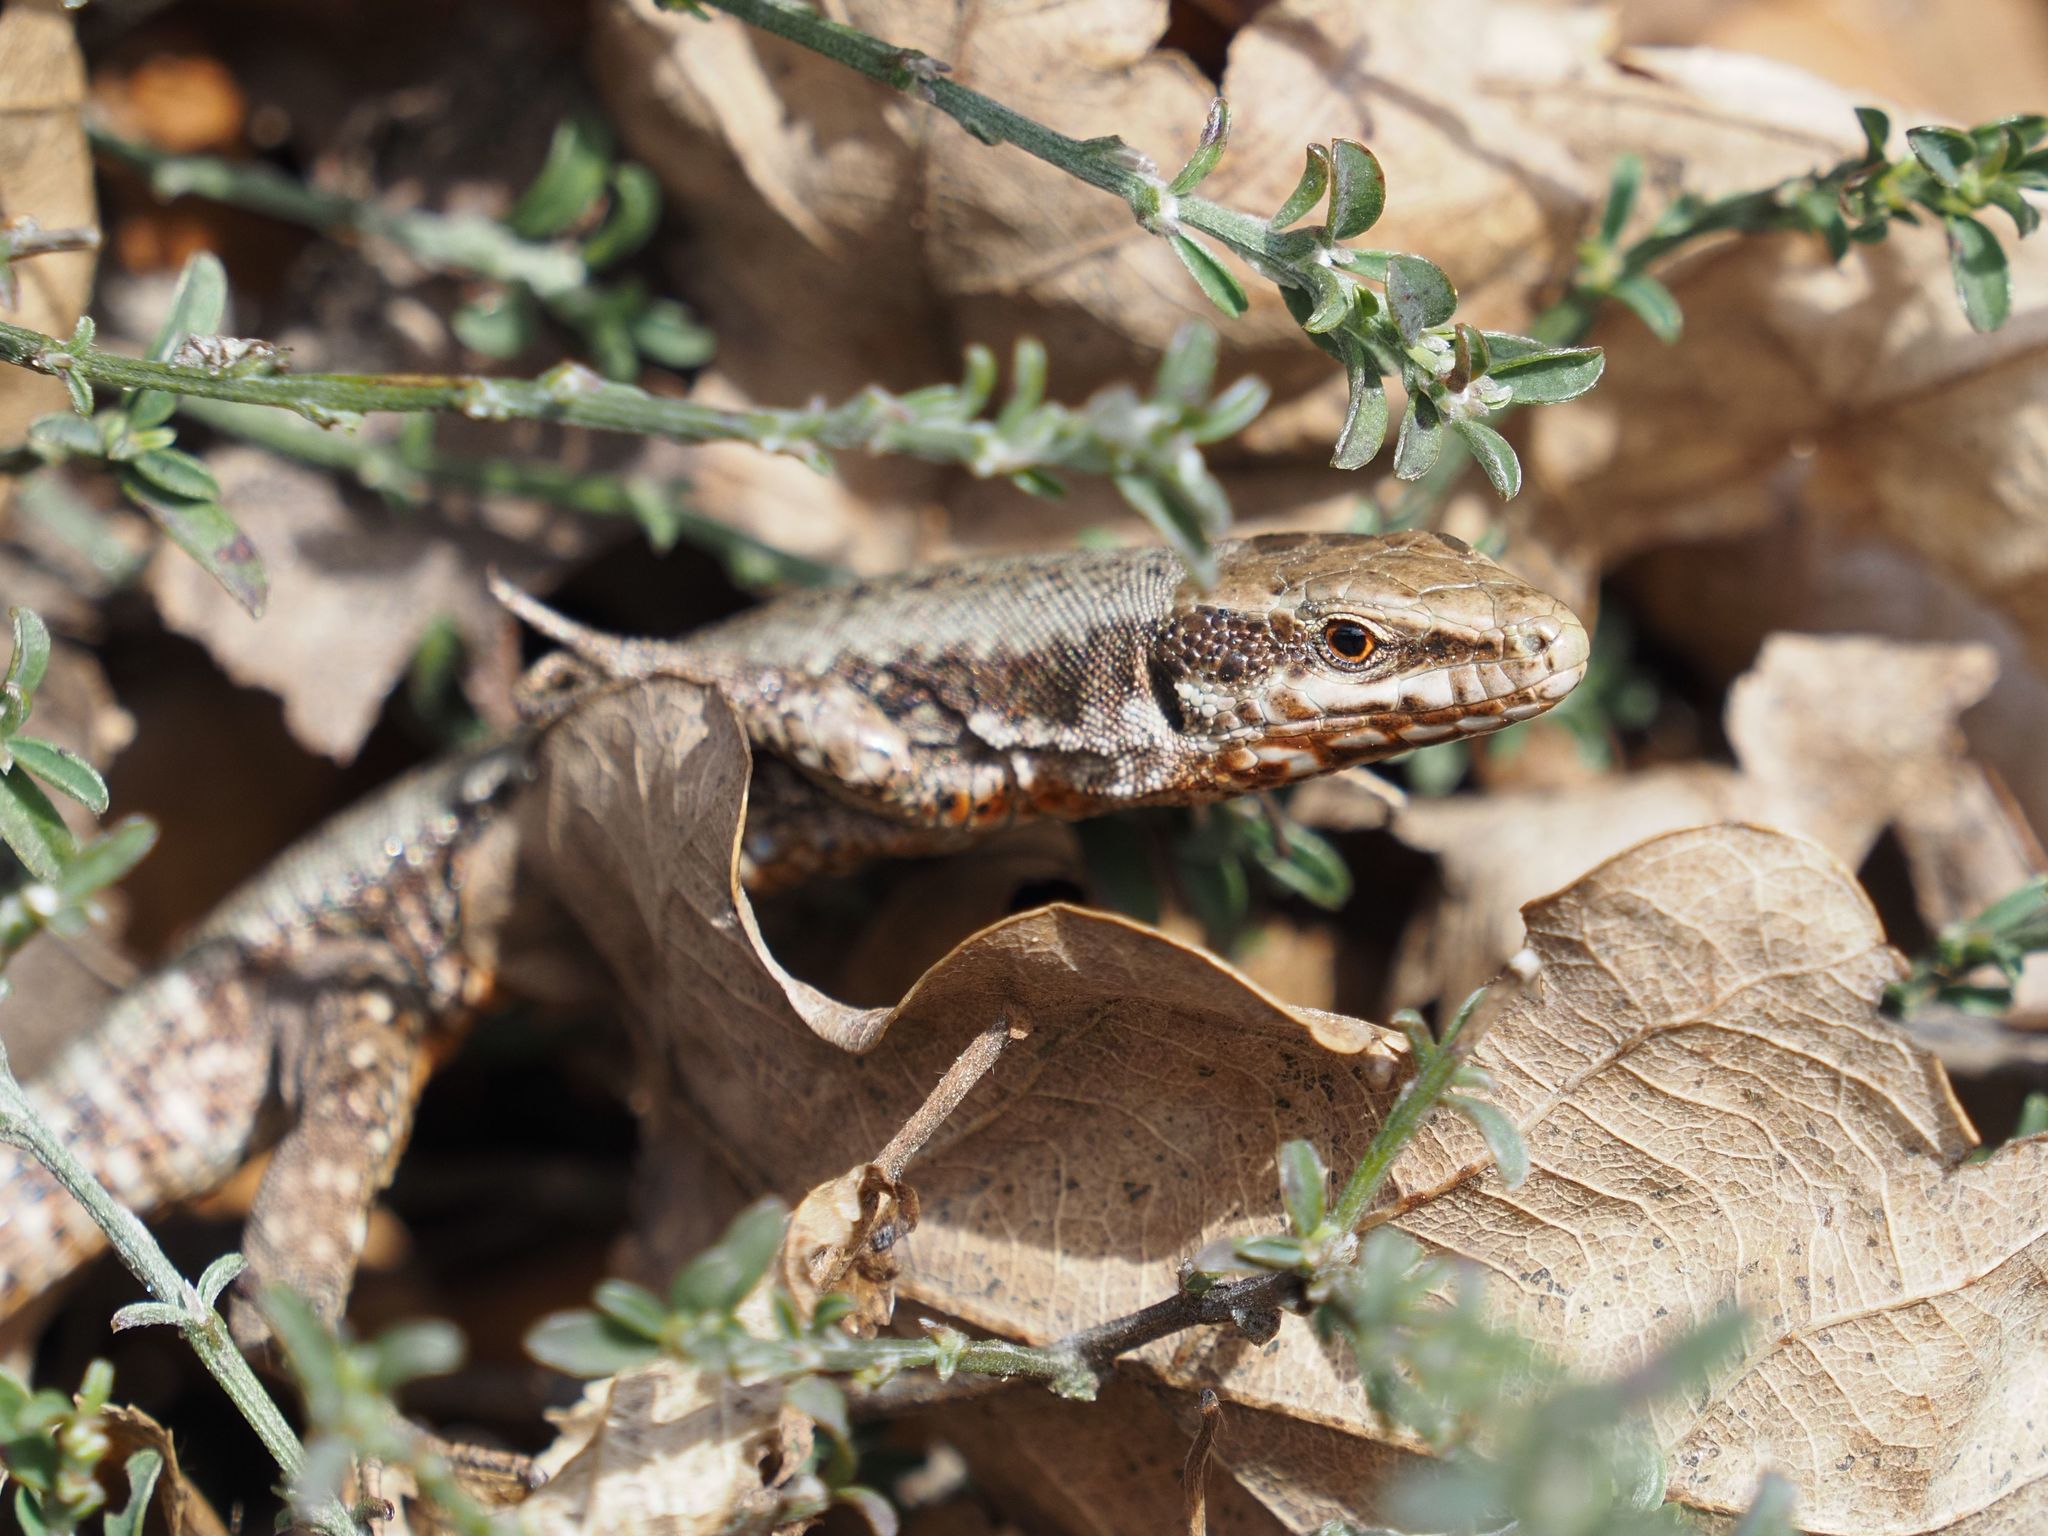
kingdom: Animalia
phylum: Chordata
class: Squamata
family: Lacertidae
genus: Podarcis
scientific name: Podarcis muralis
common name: Common wall lizard
